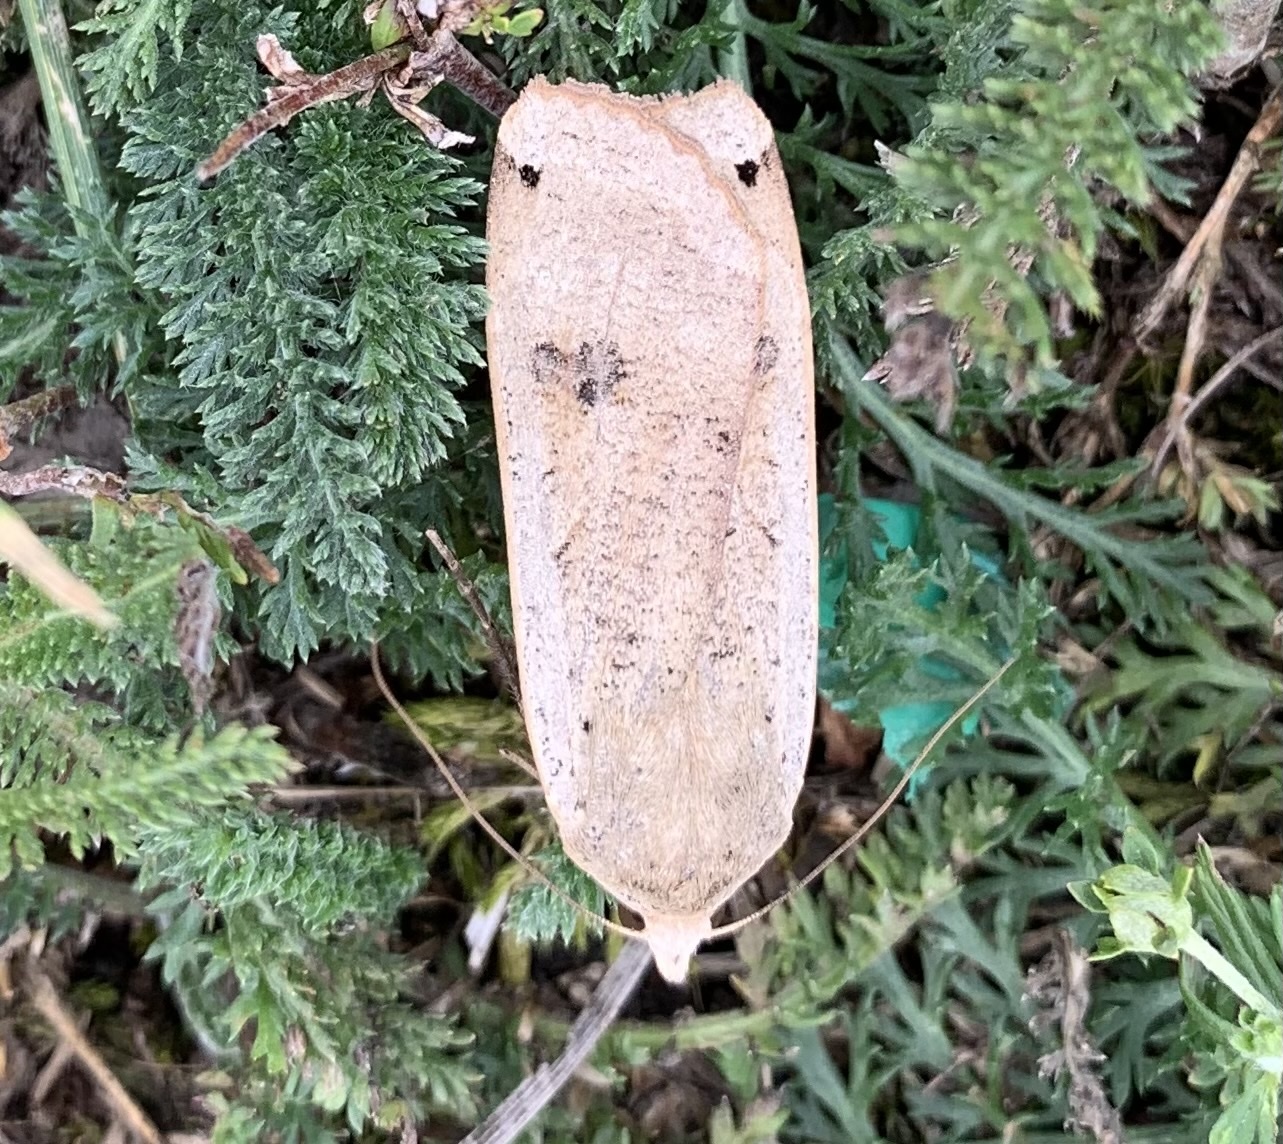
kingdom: Animalia
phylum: Arthropoda
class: Insecta
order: Lepidoptera
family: Noctuidae
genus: Noctua
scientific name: Noctua pronuba
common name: Large yellow underwing
